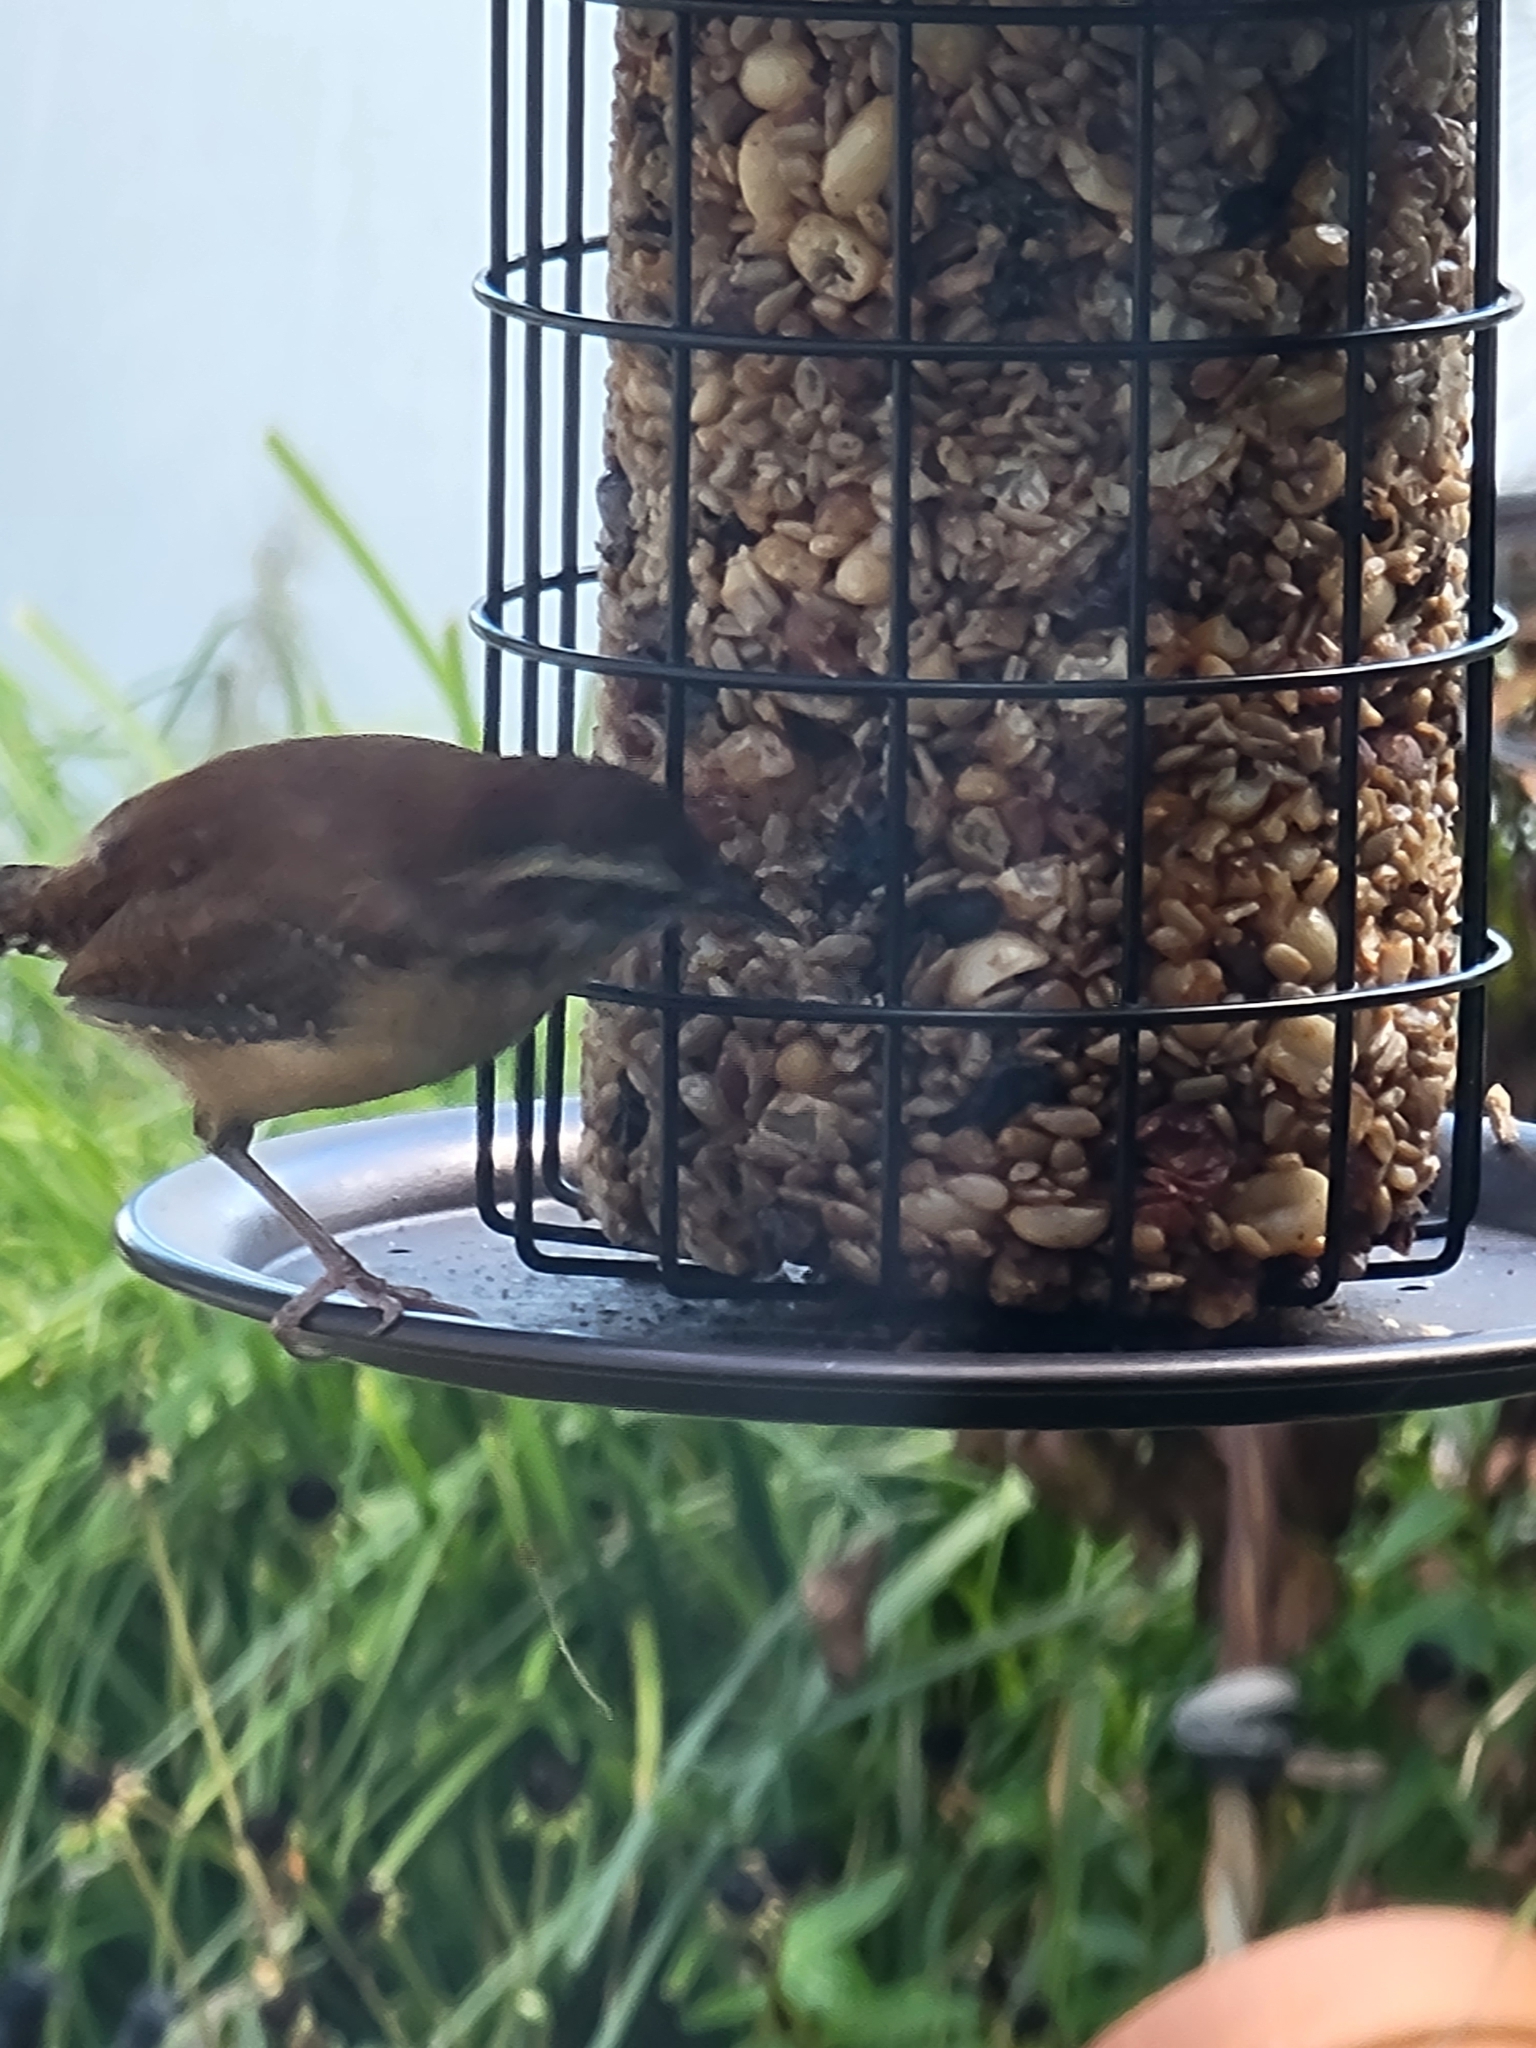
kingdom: Animalia
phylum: Chordata
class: Aves
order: Passeriformes
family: Troglodytidae
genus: Thryothorus
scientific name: Thryothorus ludovicianus
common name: Carolina wren
